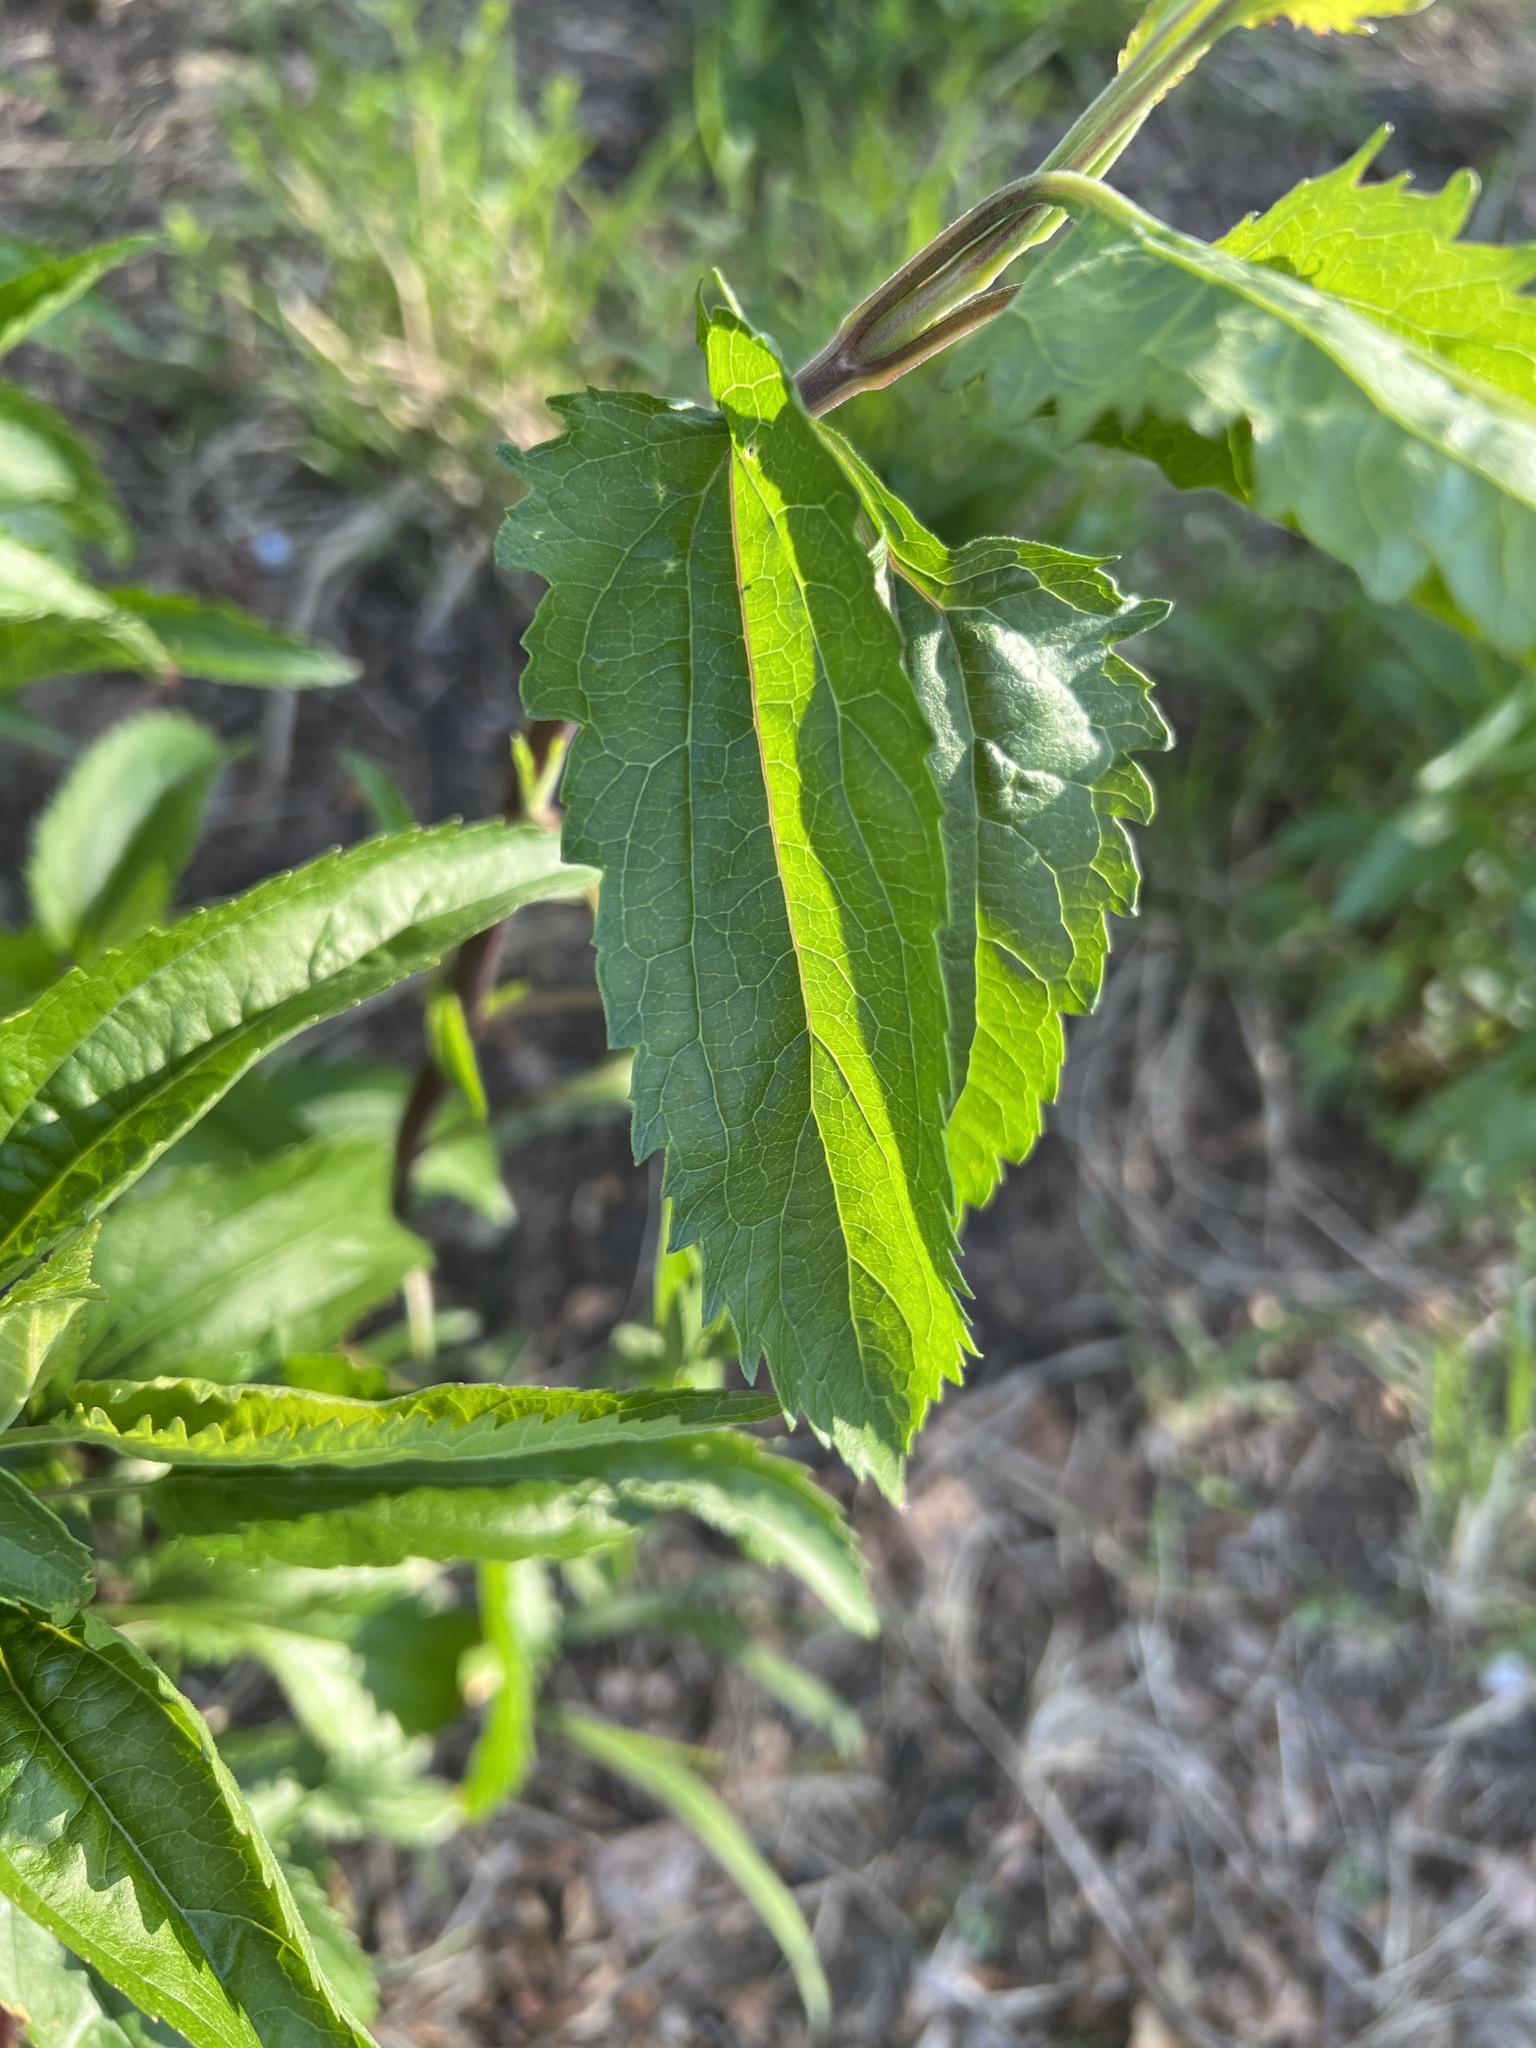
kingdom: Plantae
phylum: Tracheophyta
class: Magnoliopsida
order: Asterales
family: Asteraceae
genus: Eupatorium
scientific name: Eupatorium serotinum
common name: Late boneset
